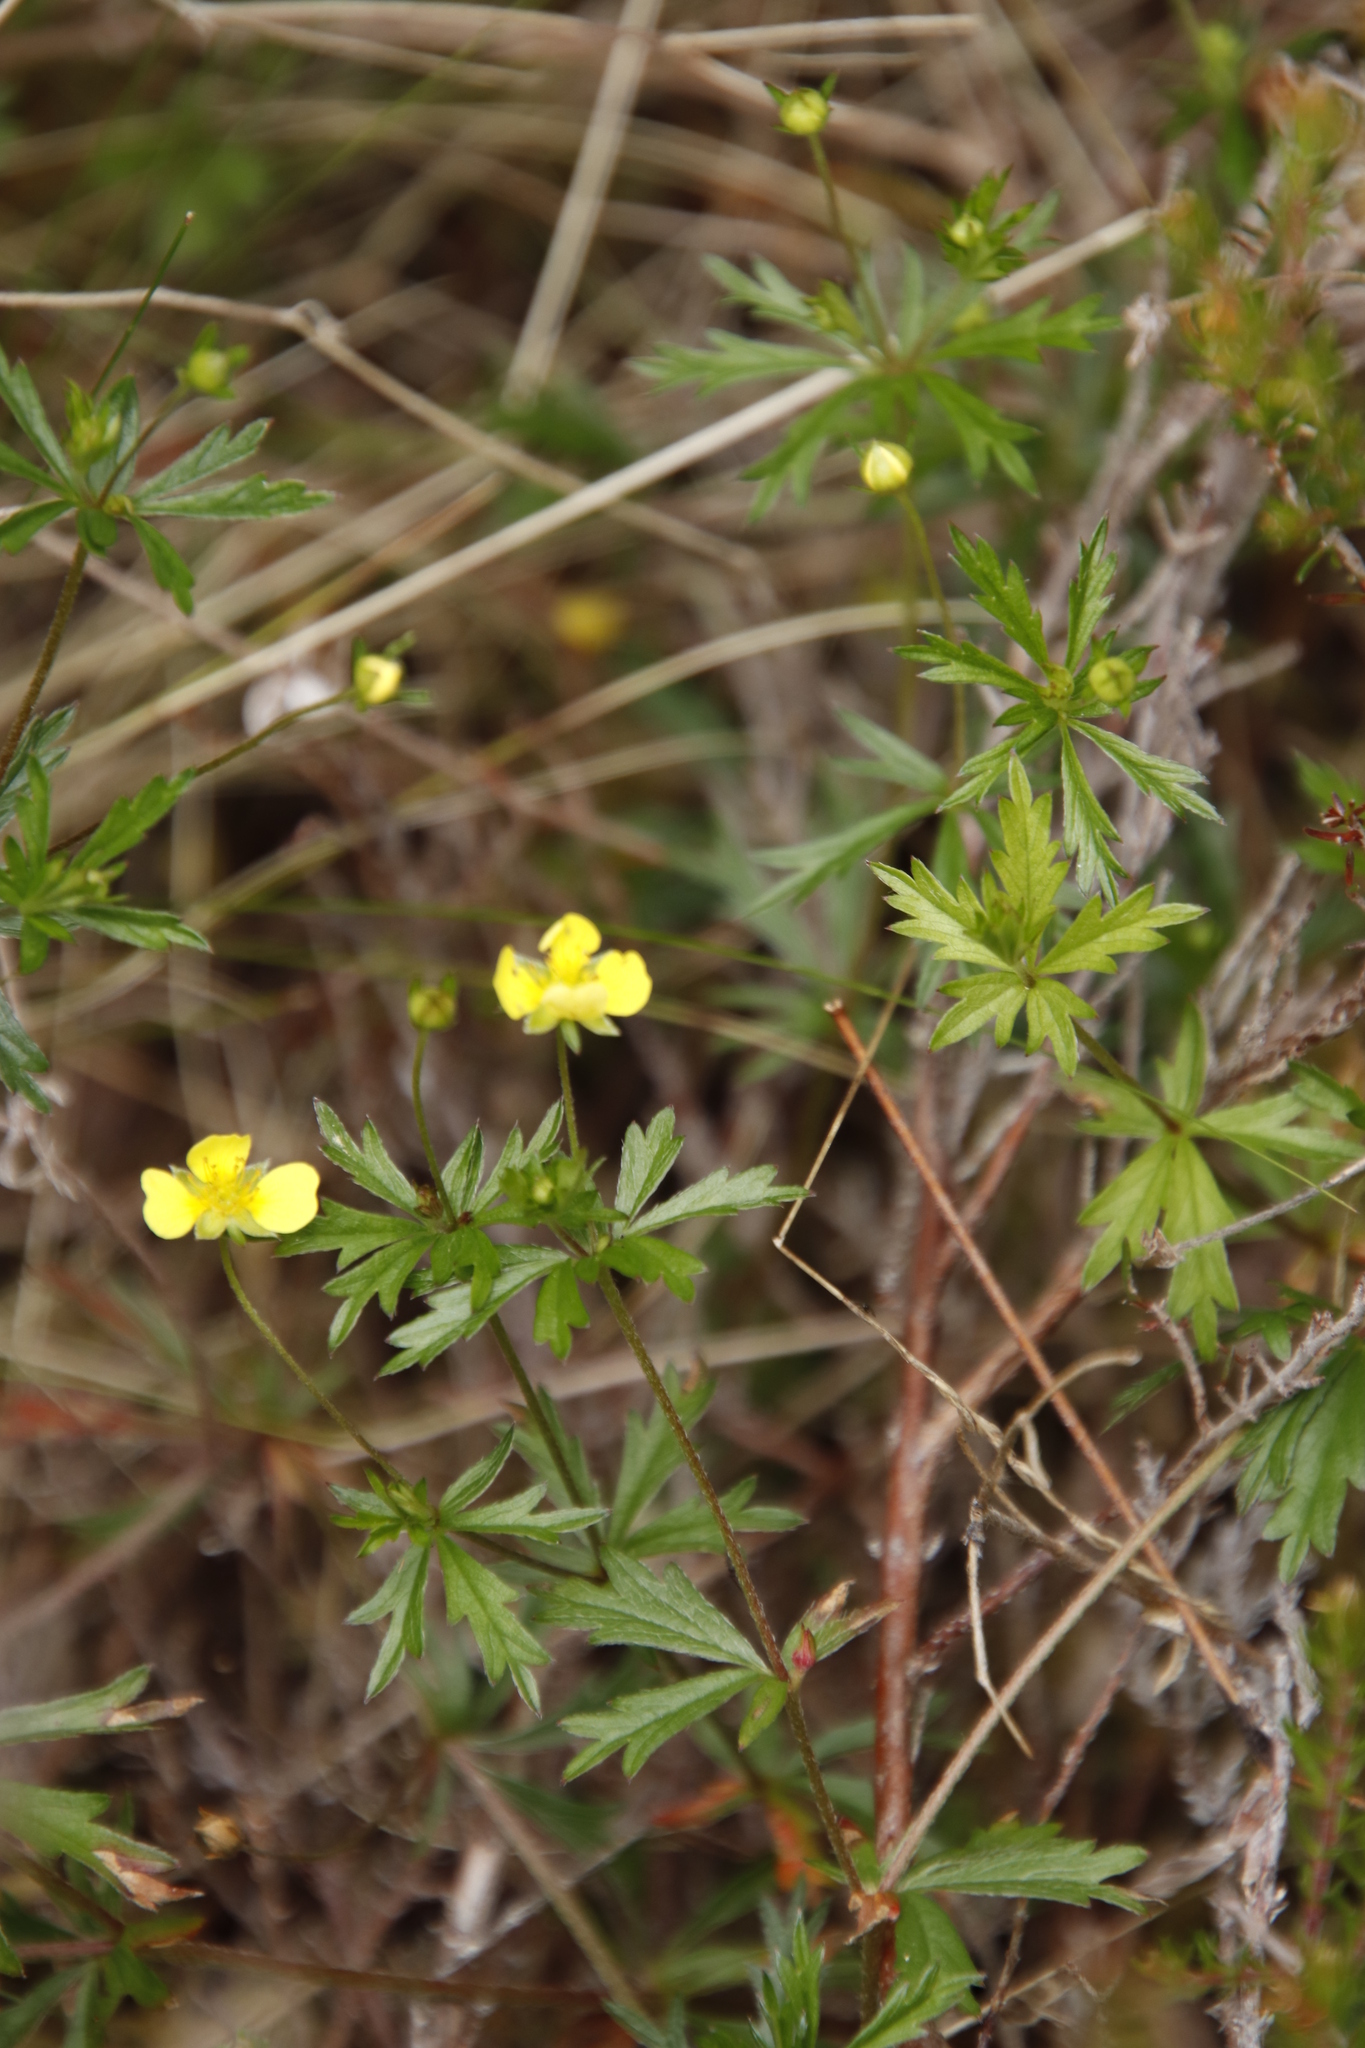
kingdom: Plantae
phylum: Tracheophyta
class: Magnoliopsida
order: Rosales
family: Rosaceae
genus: Potentilla
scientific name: Potentilla erecta
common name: Tormentil
